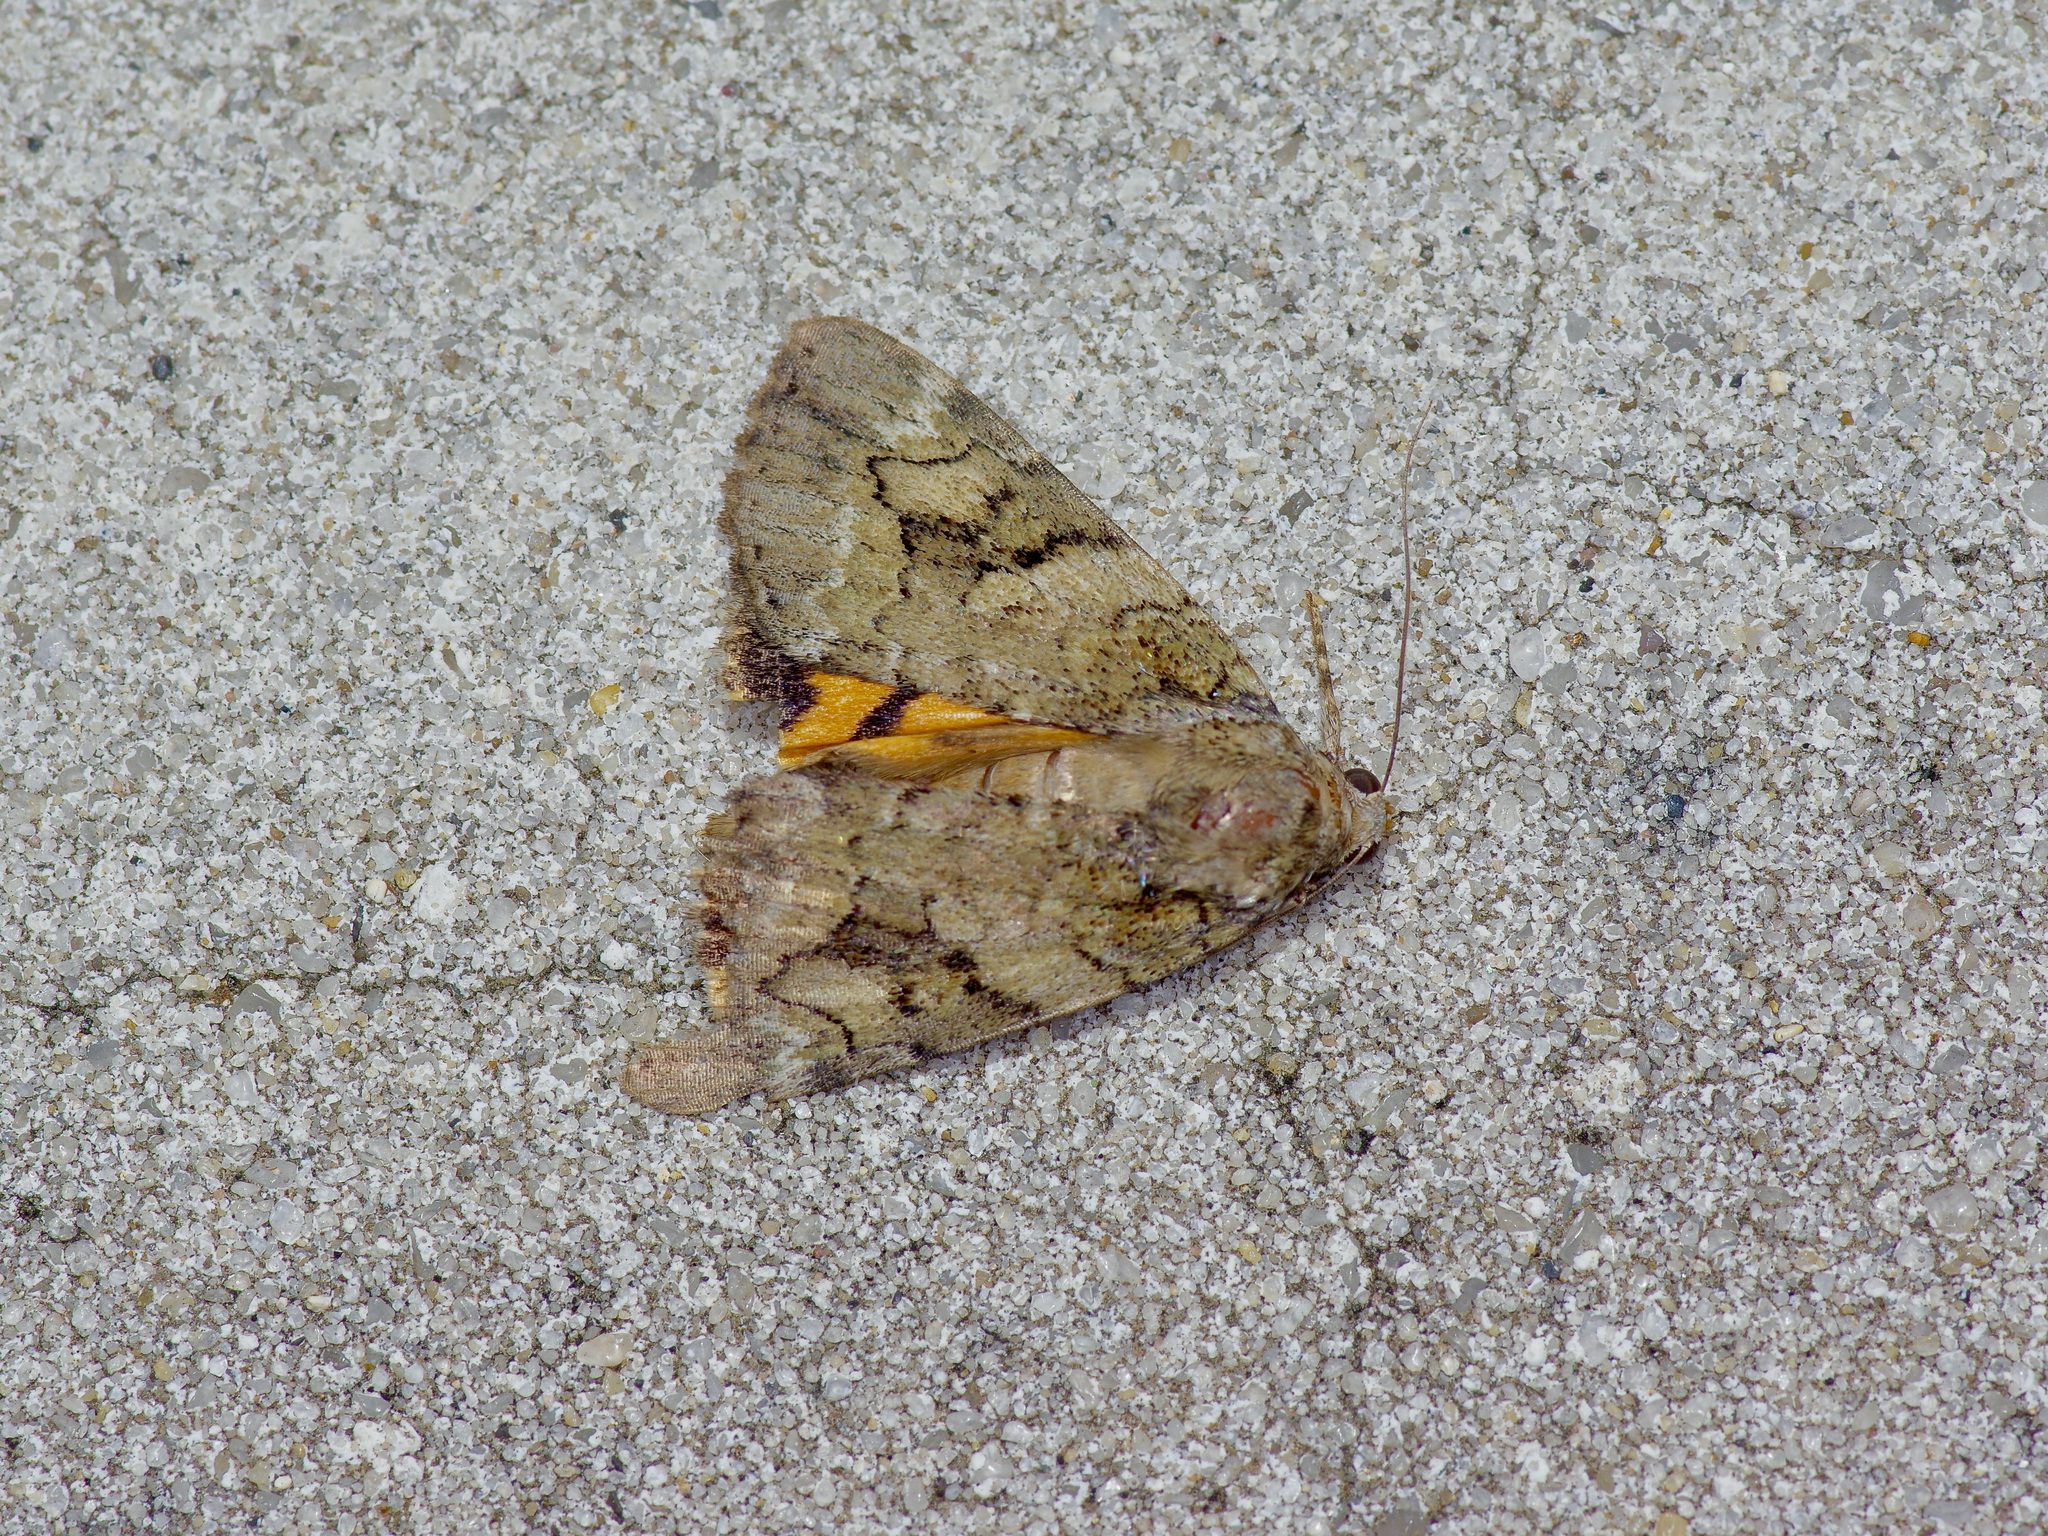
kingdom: Animalia
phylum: Arthropoda
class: Insecta
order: Lepidoptera
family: Erebidae
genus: Catocala
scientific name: Catocala micronympha
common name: Little nymph underwing
